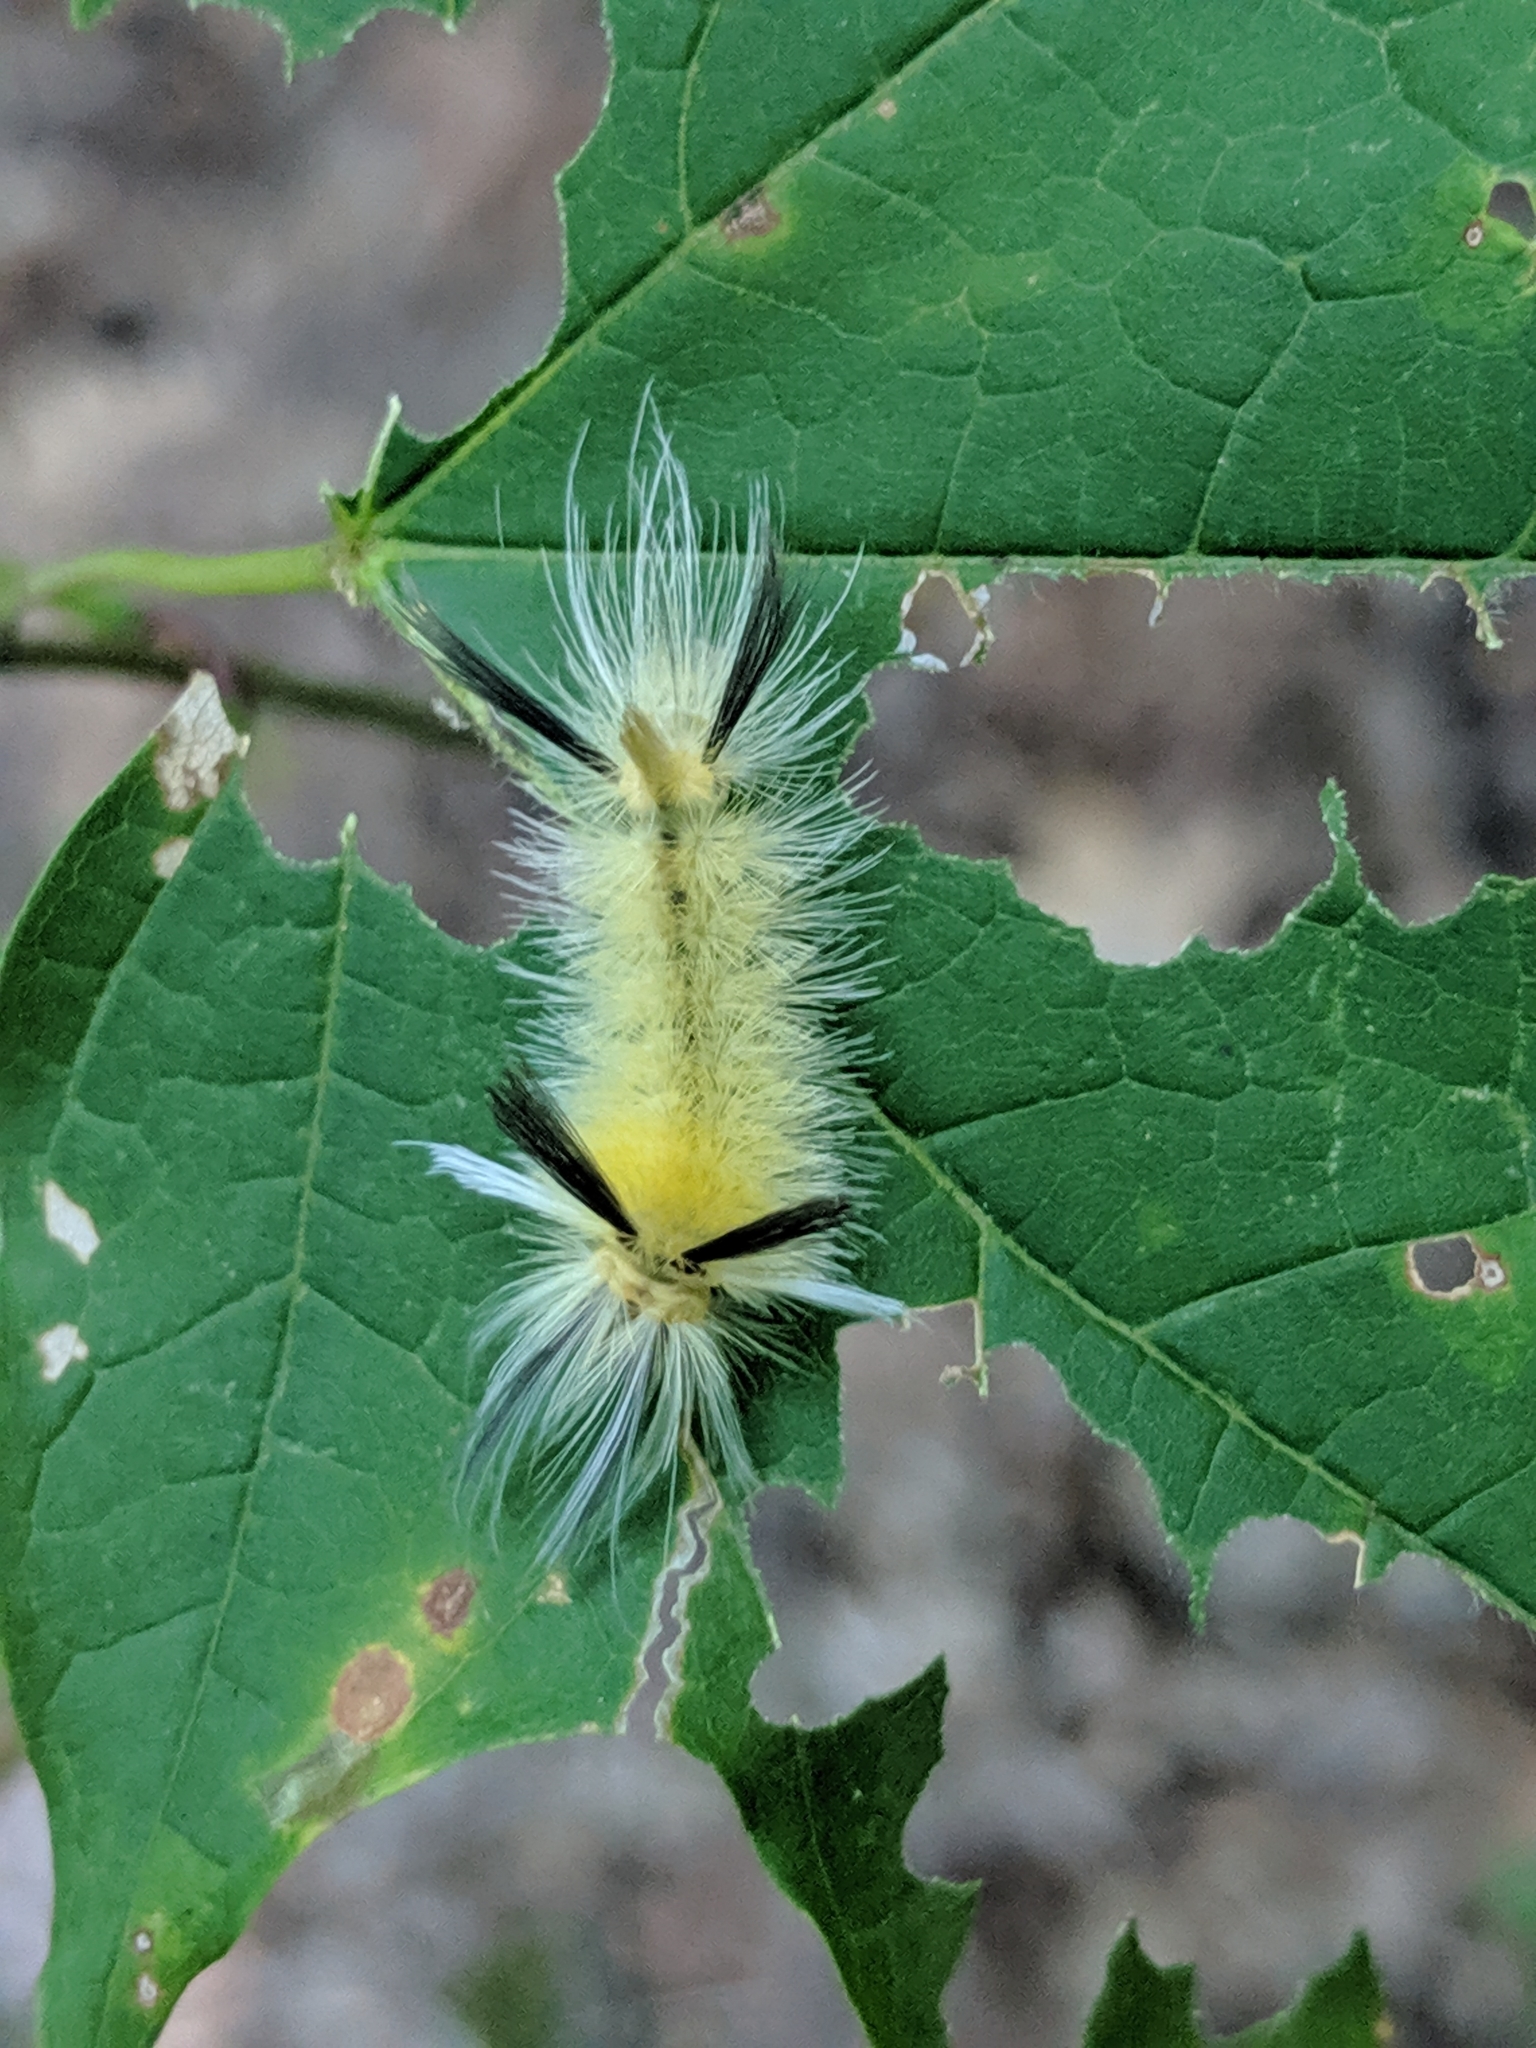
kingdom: Animalia
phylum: Arthropoda
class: Insecta
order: Lepidoptera
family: Erebidae
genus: Halysidota
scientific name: Halysidota tessellaris
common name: Banded tussock moth
